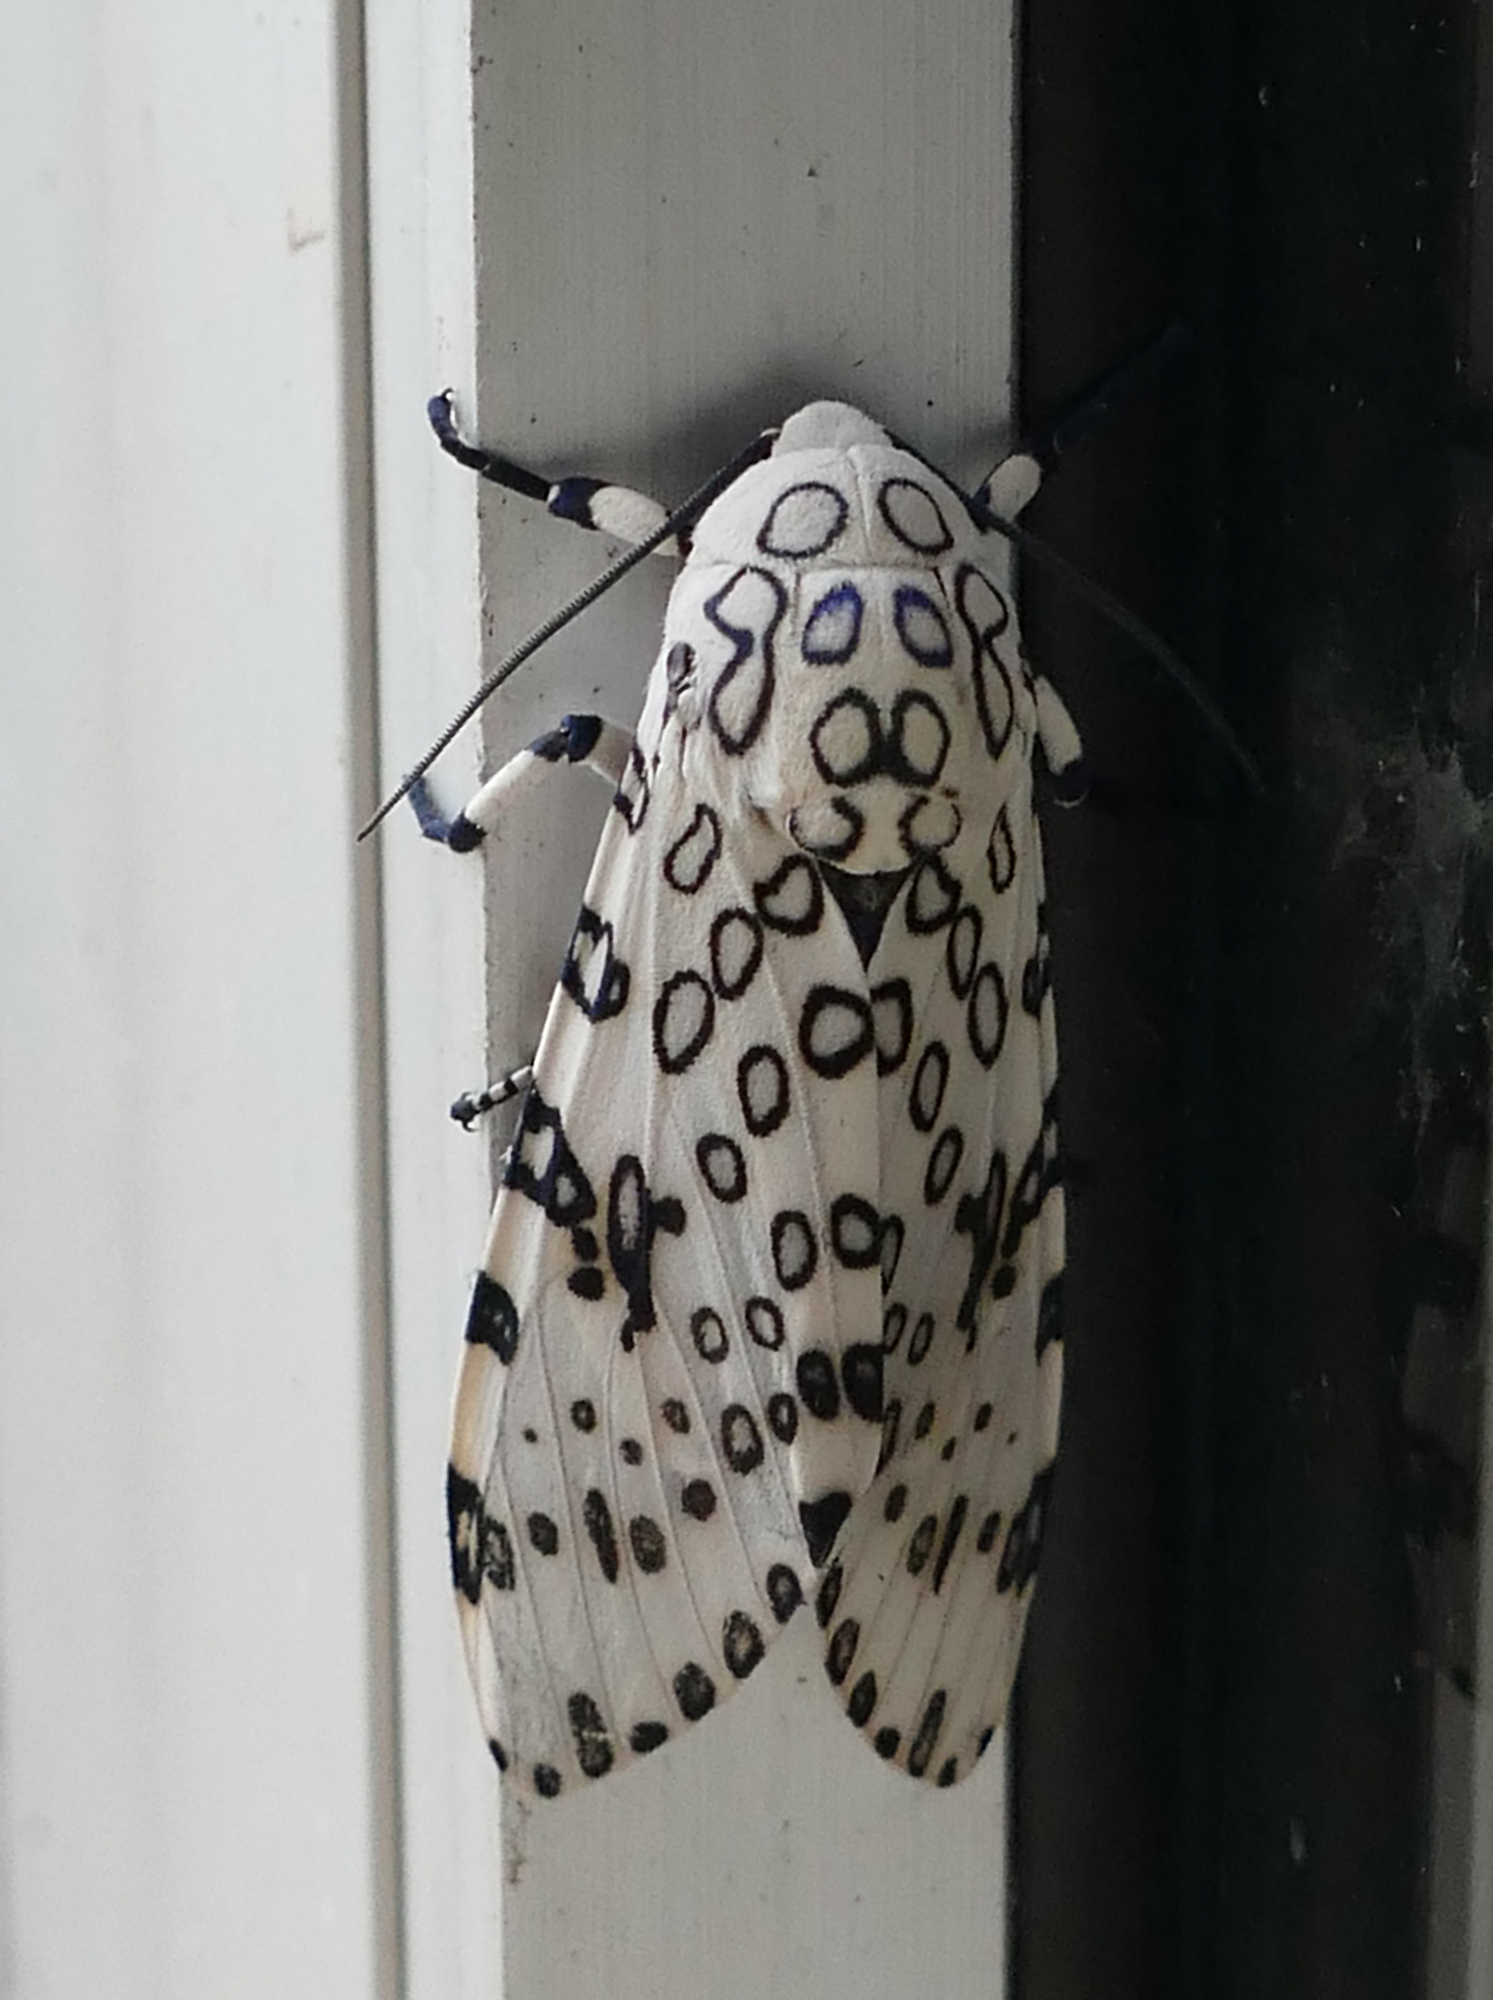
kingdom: Animalia
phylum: Arthropoda
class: Insecta
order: Lepidoptera
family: Erebidae
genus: Hypercompe
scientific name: Hypercompe scribonia
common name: Giant leopard moth
